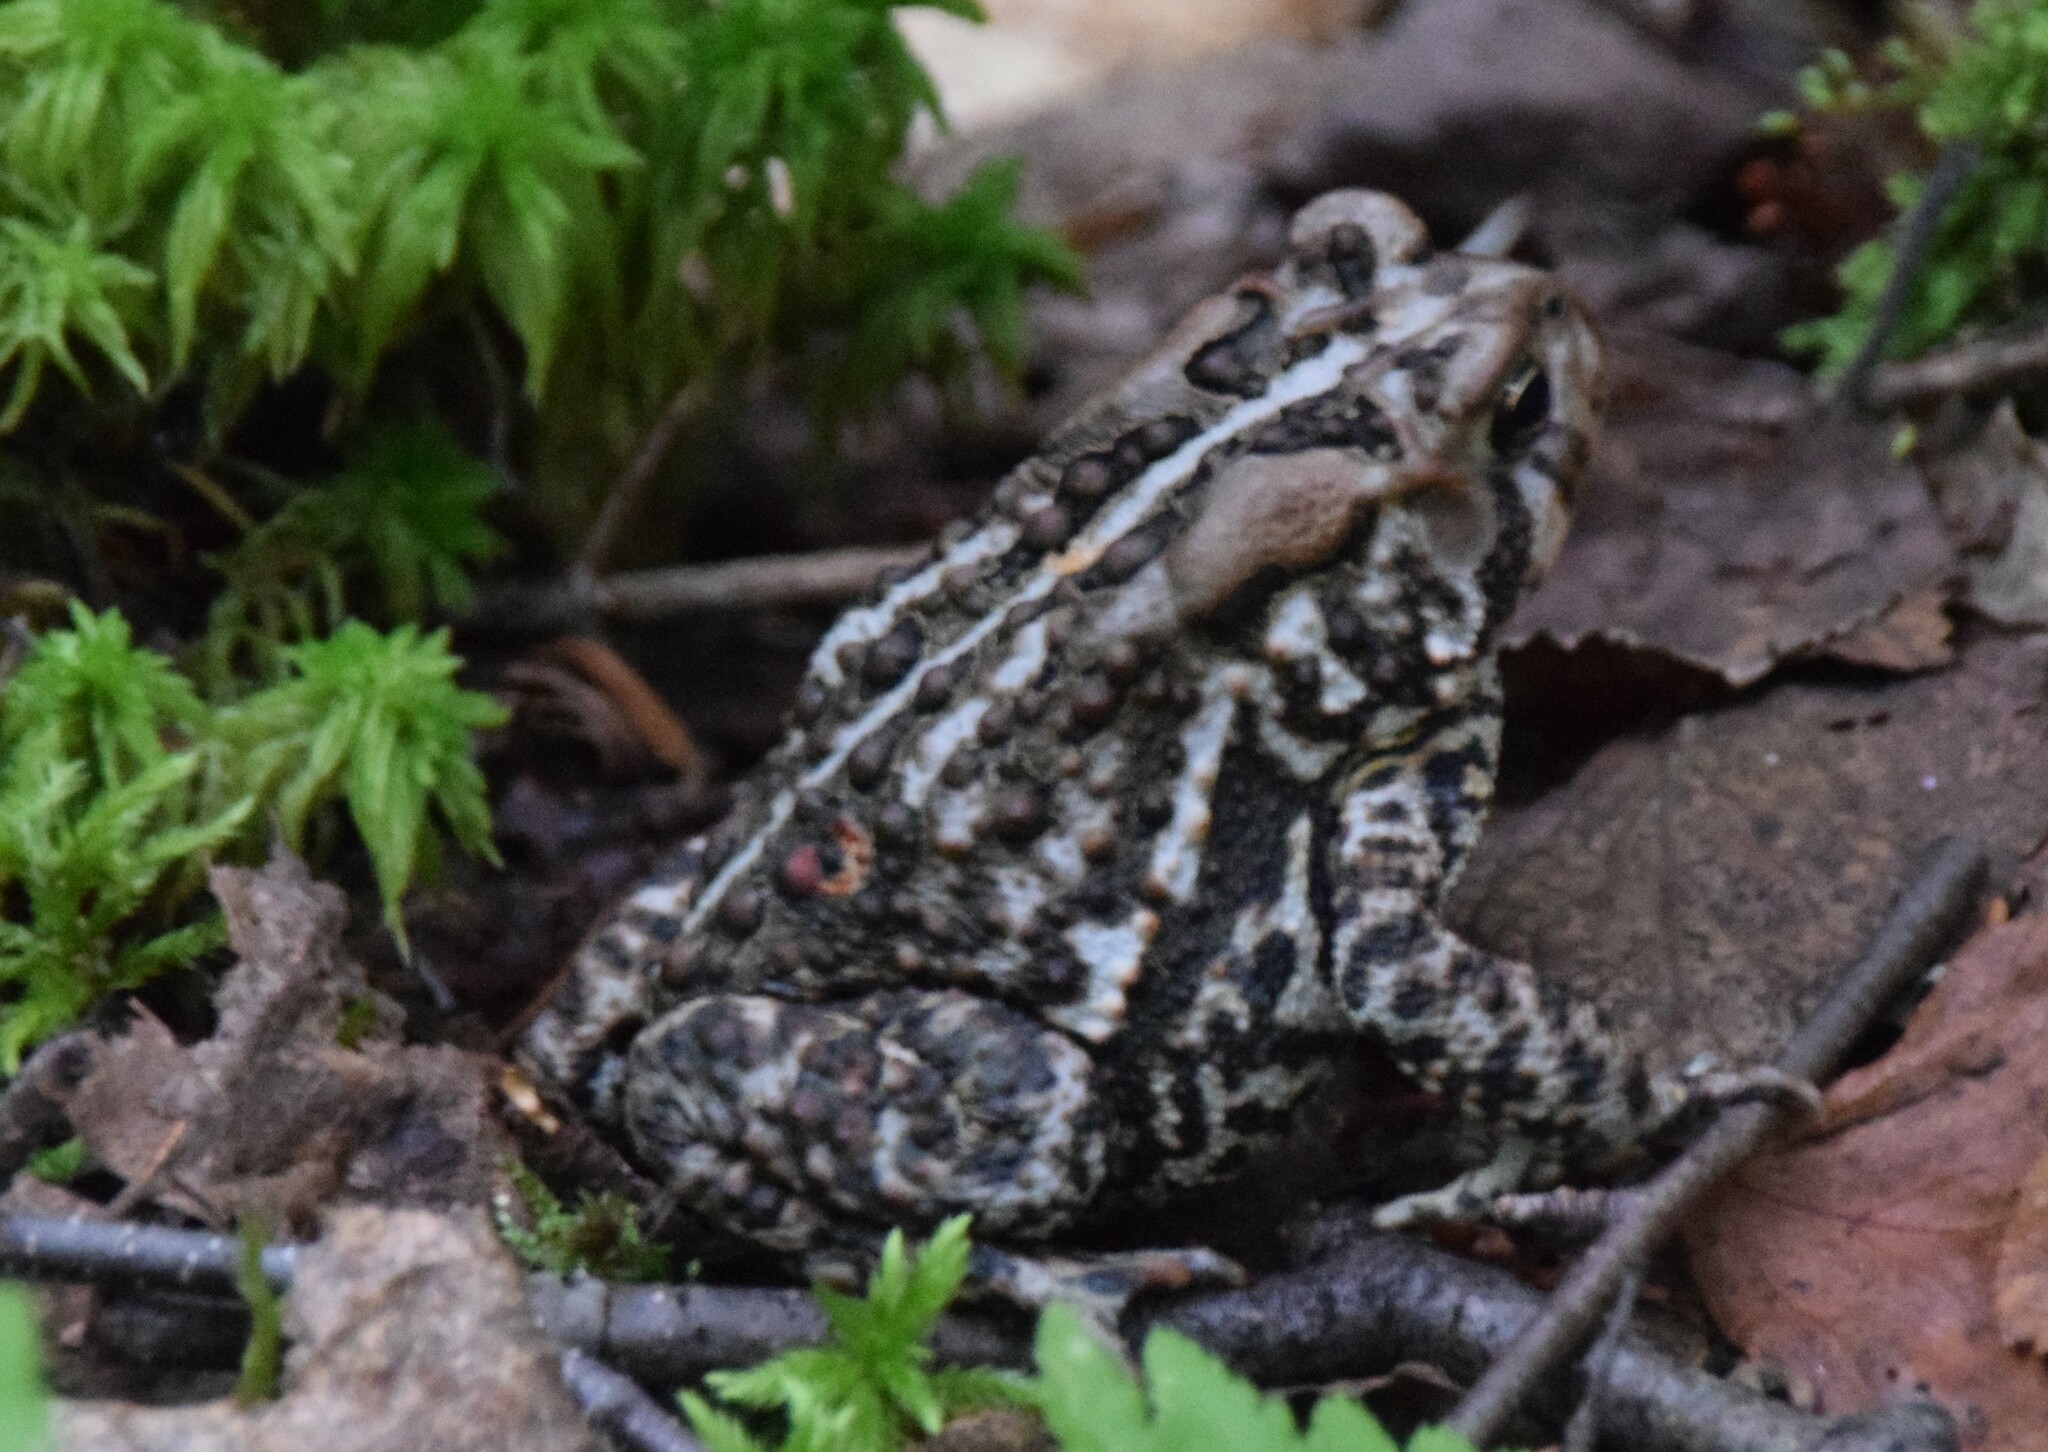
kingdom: Animalia
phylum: Chordata
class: Amphibia
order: Anura
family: Bufonidae
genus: Anaxyrus
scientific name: Anaxyrus americanus
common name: American toad
